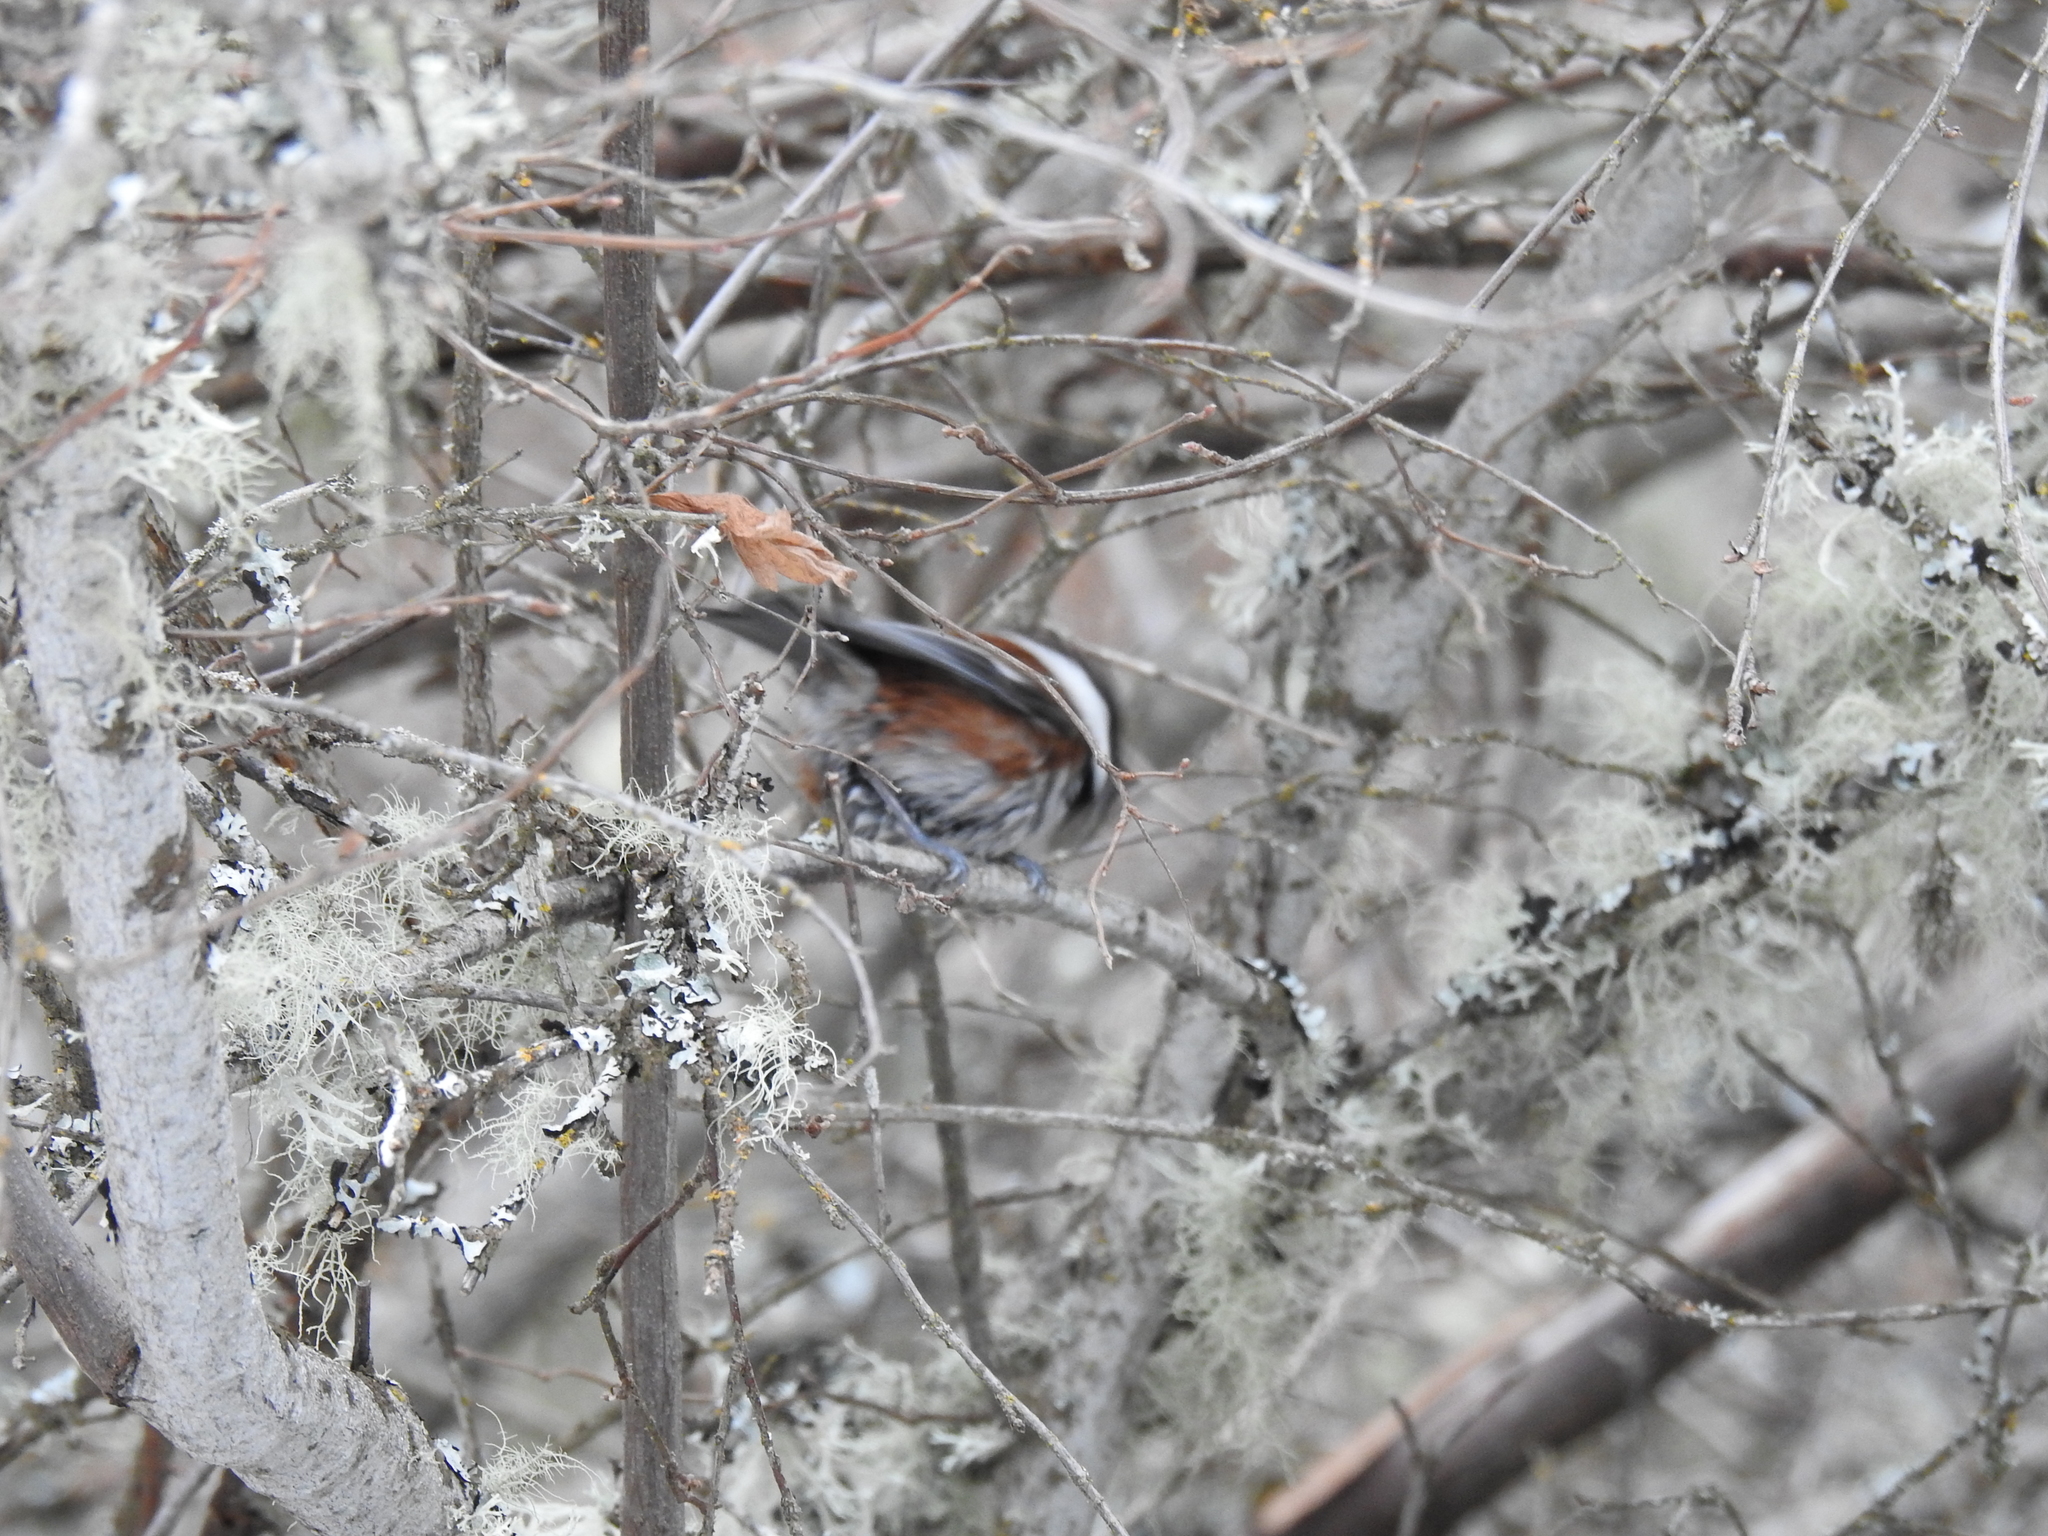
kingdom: Animalia
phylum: Chordata
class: Aves
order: Passeriformes
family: Paridae
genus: Poecile
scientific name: Poecile rufescens
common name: Chestnut-backed chickadee
